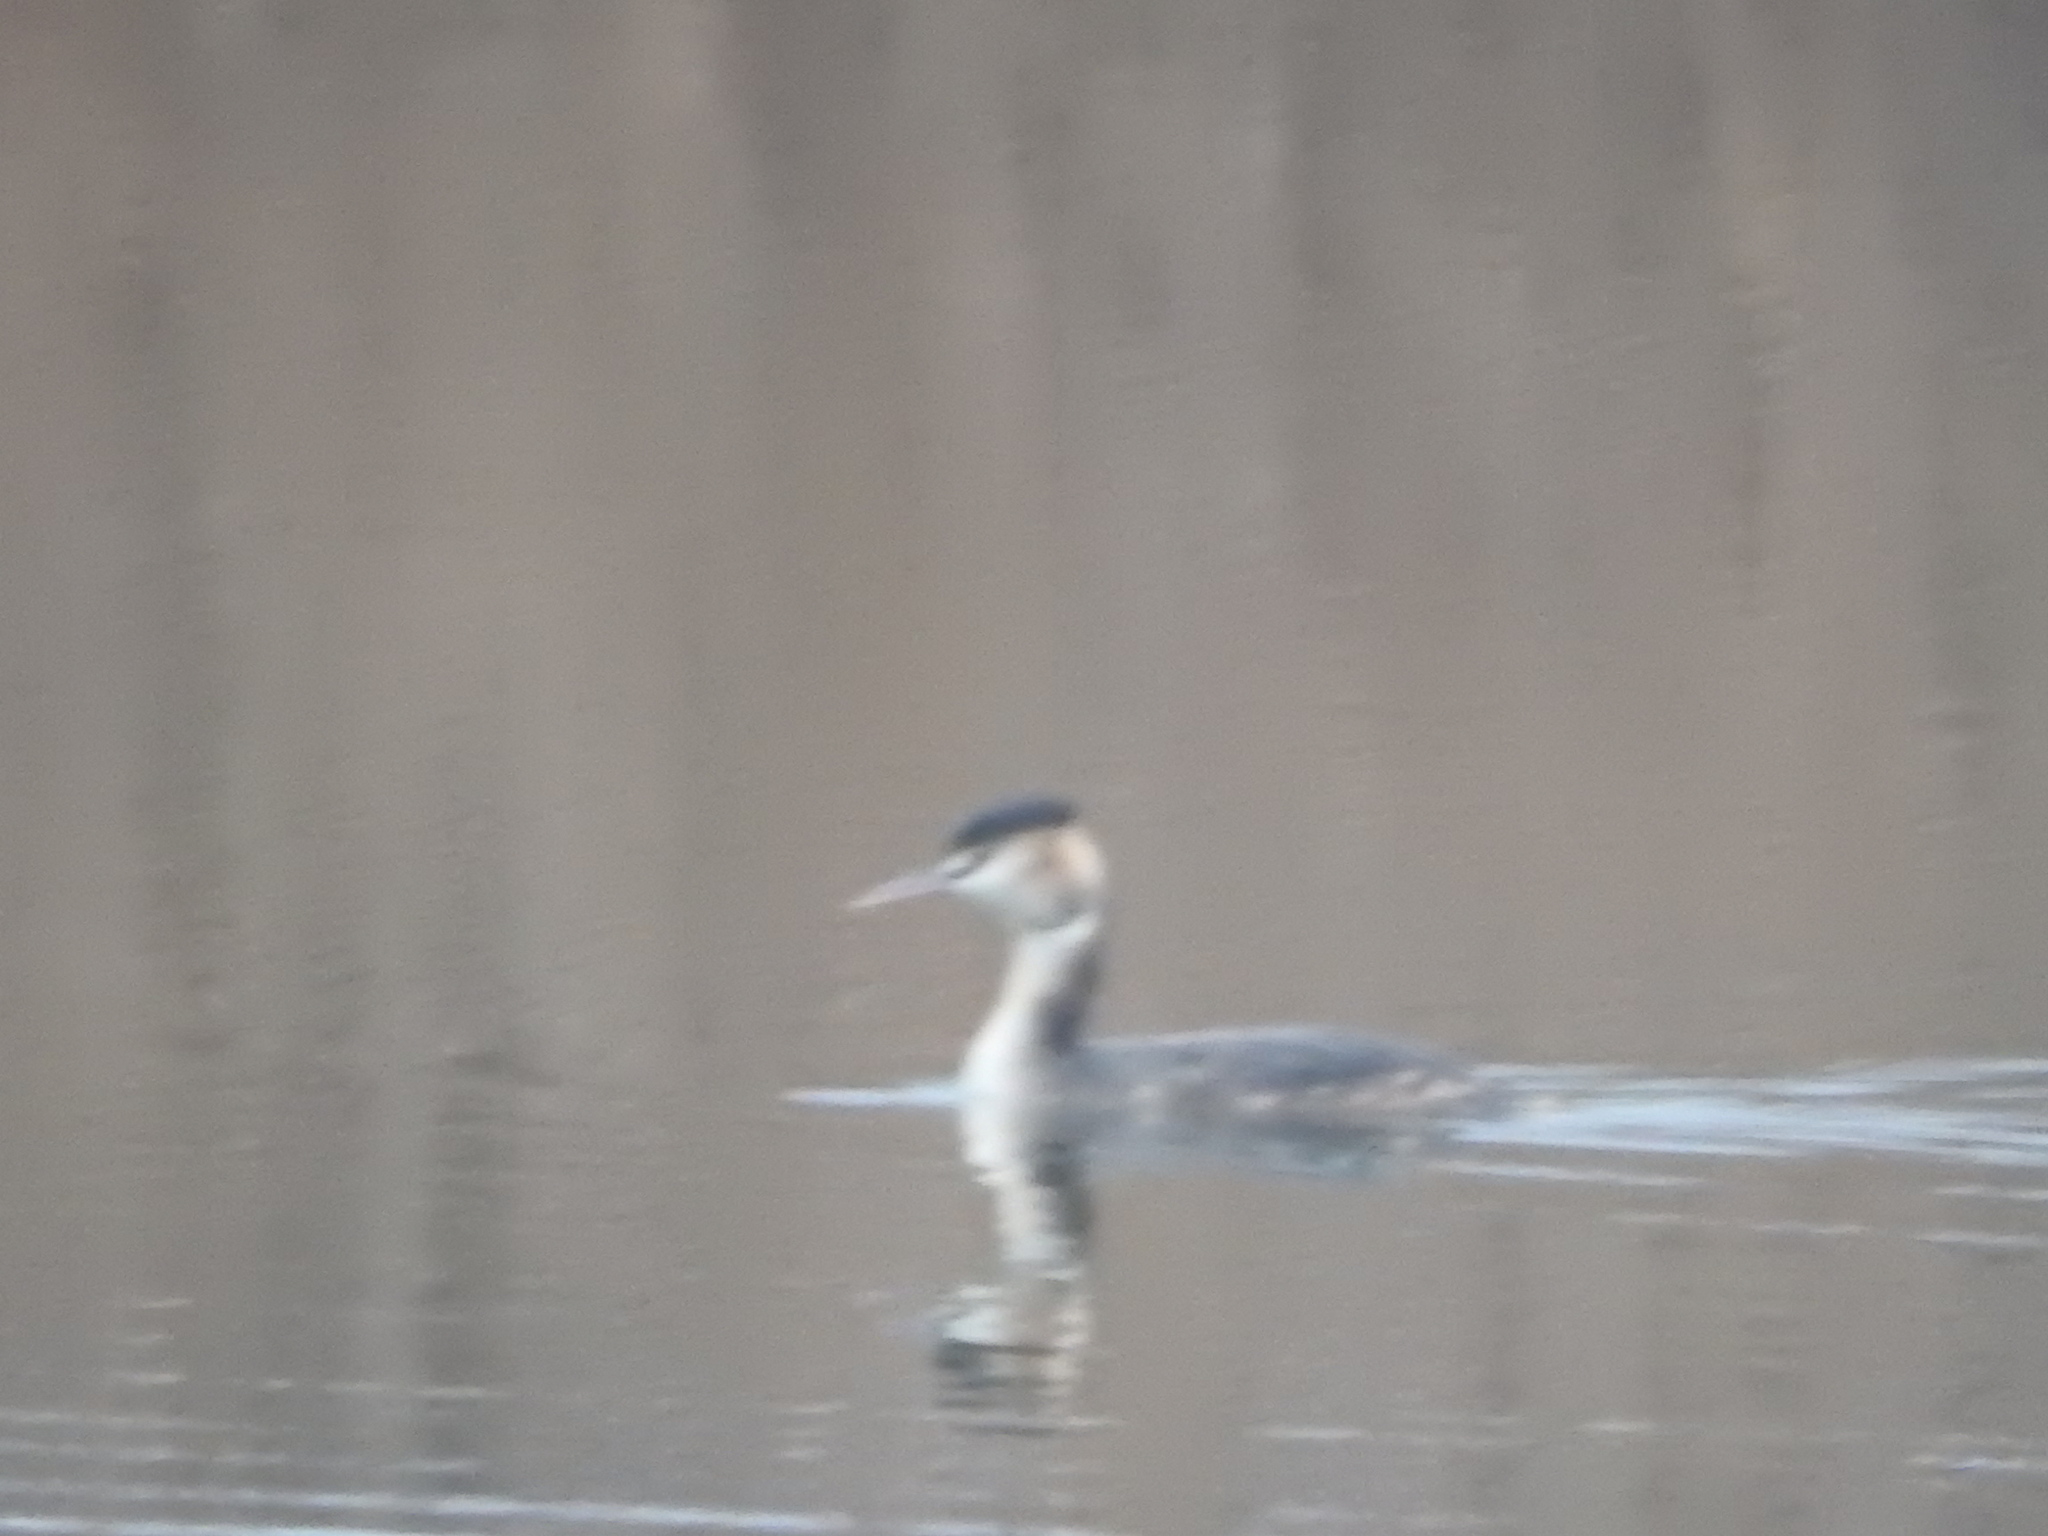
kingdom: Animalia
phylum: Chordata
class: Aves
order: Podicipediformes
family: Podicipedidae
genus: Podiceps
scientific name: Podiceps cristatus
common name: Great crested grebe
